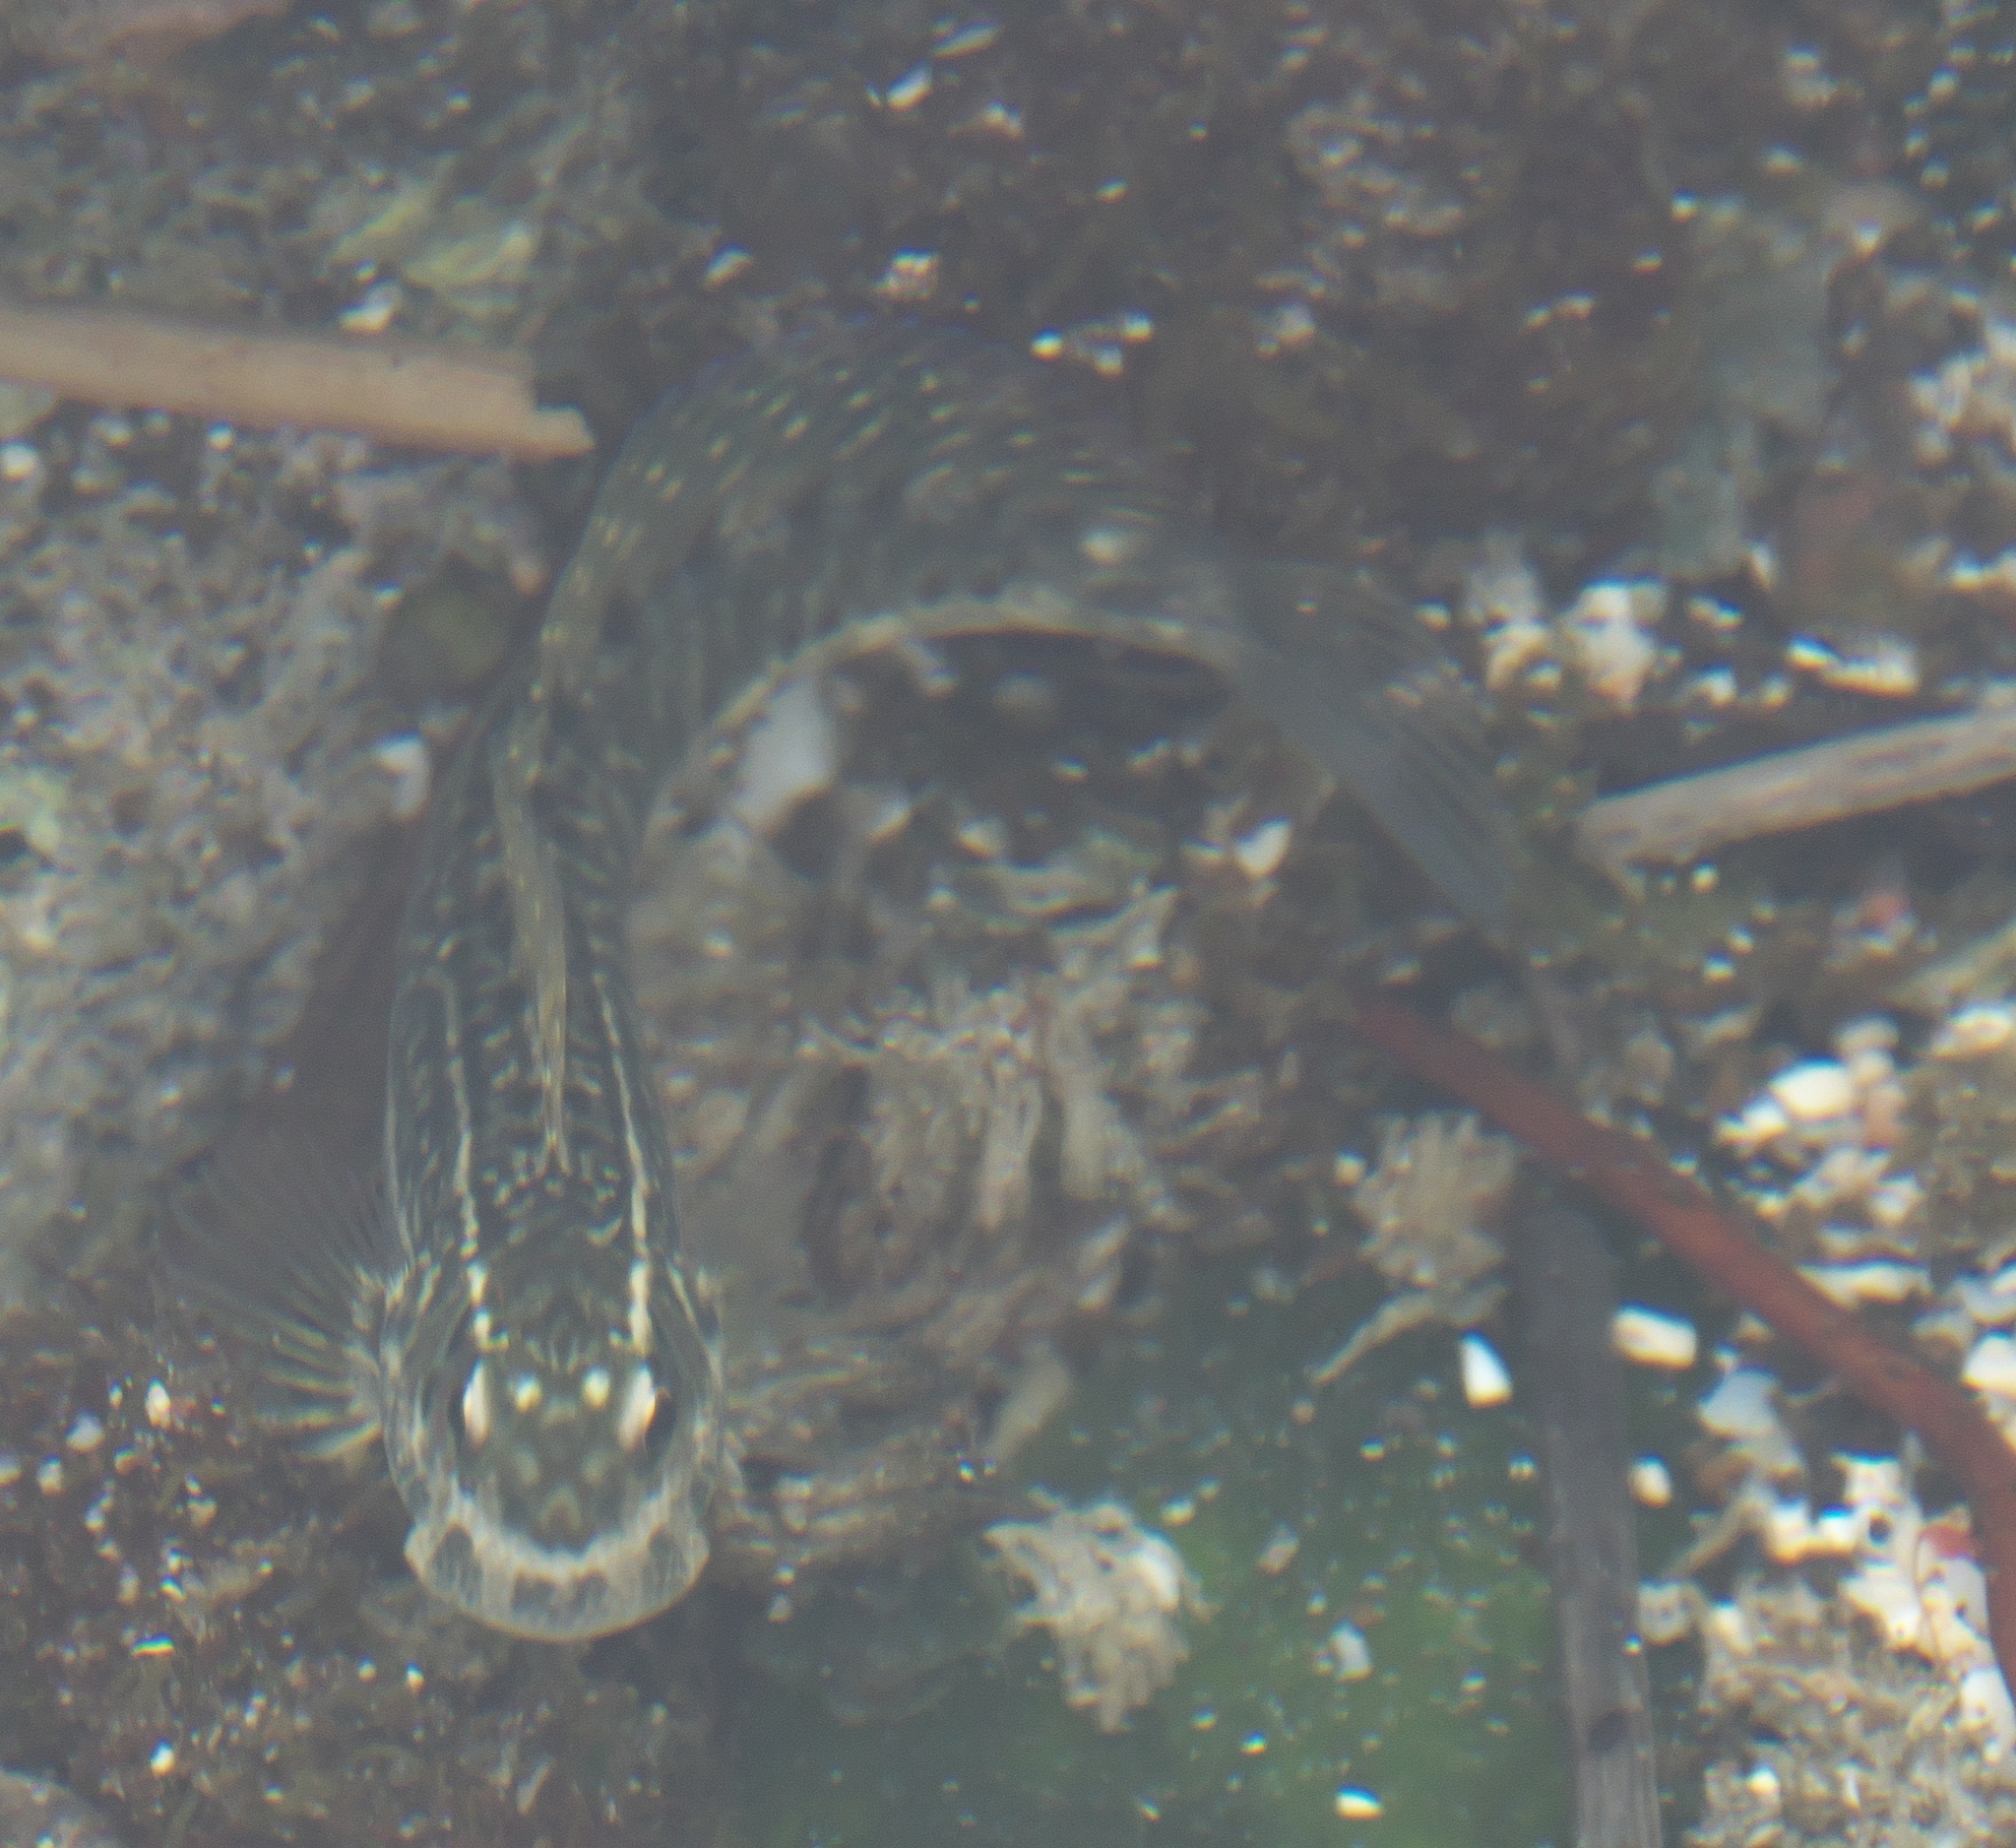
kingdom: Animalia
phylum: Chordata
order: Perciformes
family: Blenniidae
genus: Istiblennius
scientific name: Istiblennius edentulus
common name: Rippled rockskipper
